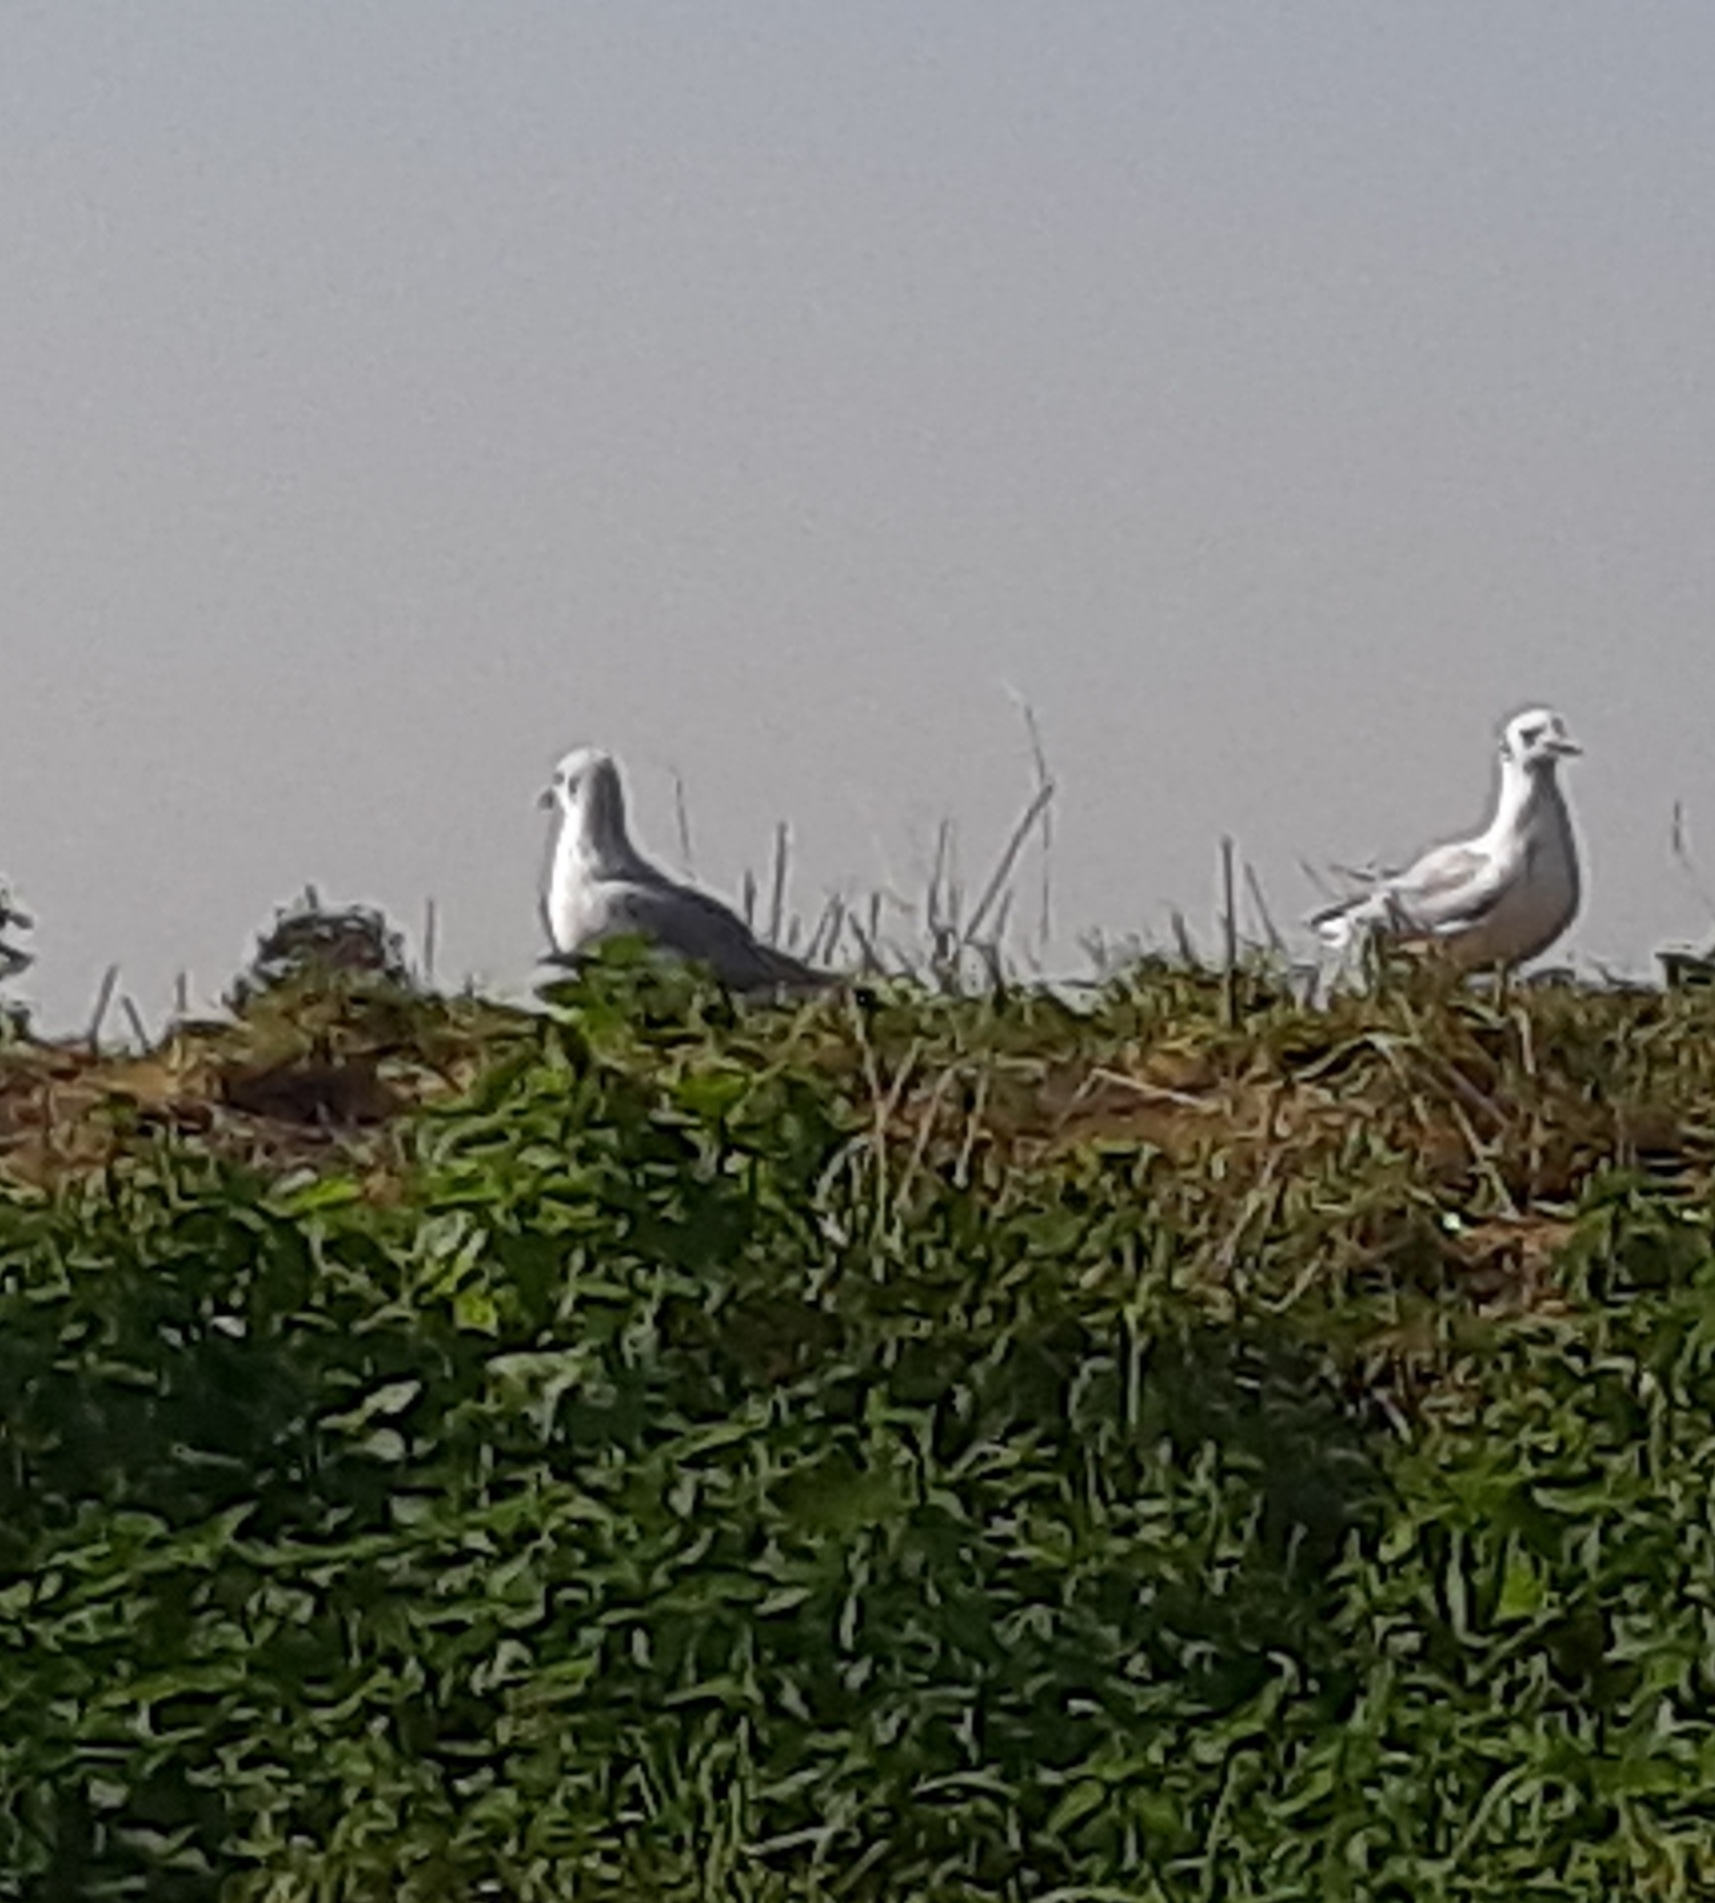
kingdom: Animalia
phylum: Chordata
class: Aves
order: Charadriiformes
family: Laridae
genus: Chroicocephalus
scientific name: Chroicocephalus ridibundus
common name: Black-headed gull
